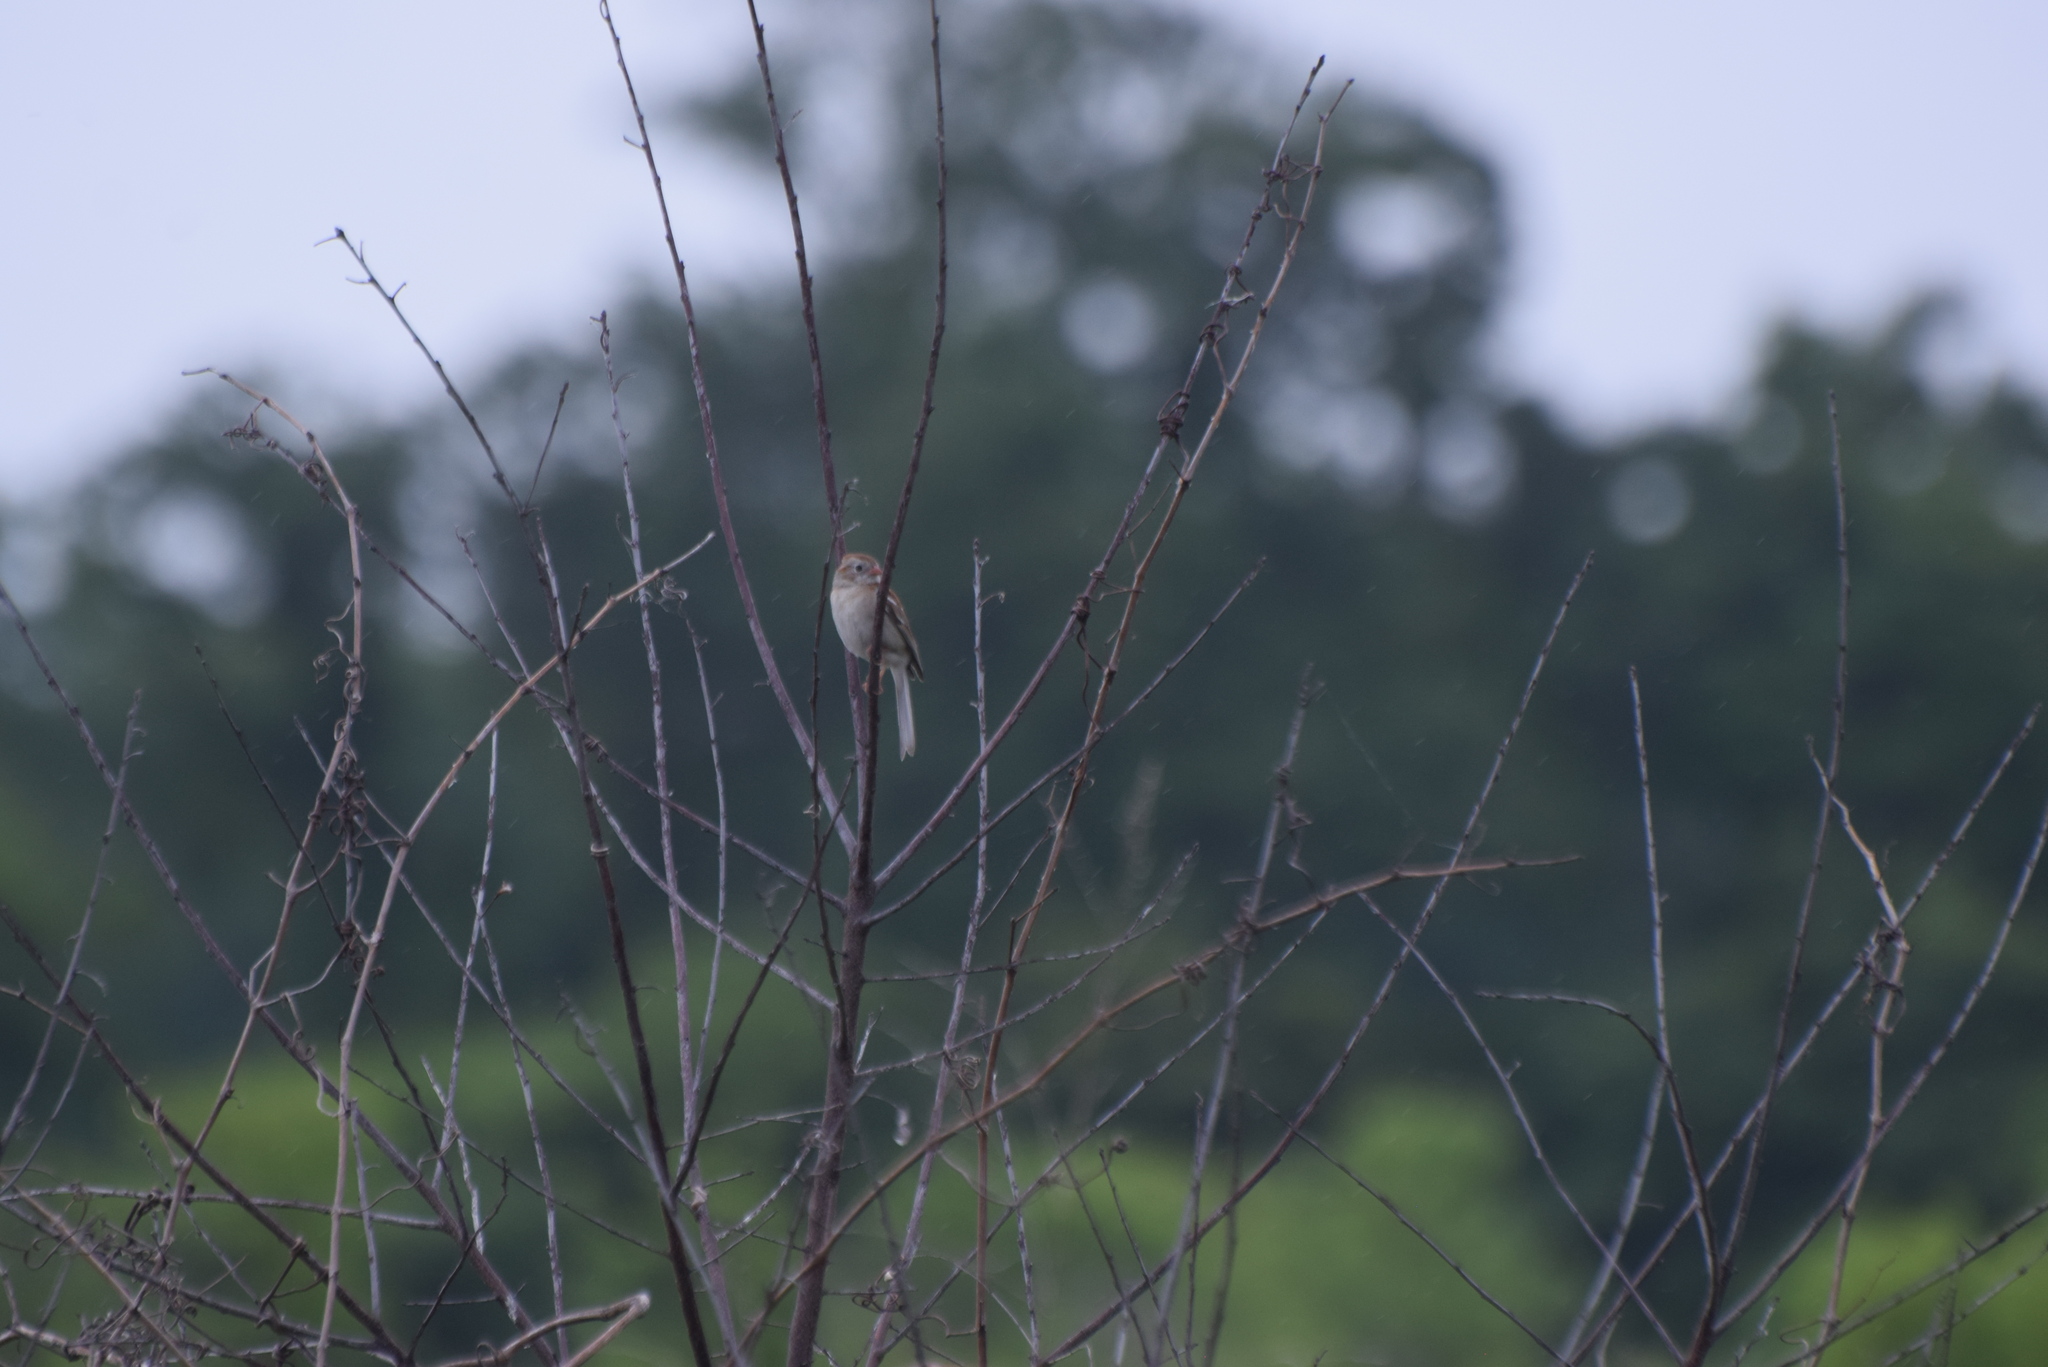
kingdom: Animalia
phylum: Chordata
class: Aves
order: Passeriformes
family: Passerellidae
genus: Spizella
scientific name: Spizella pusilla
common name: Field sparrow
